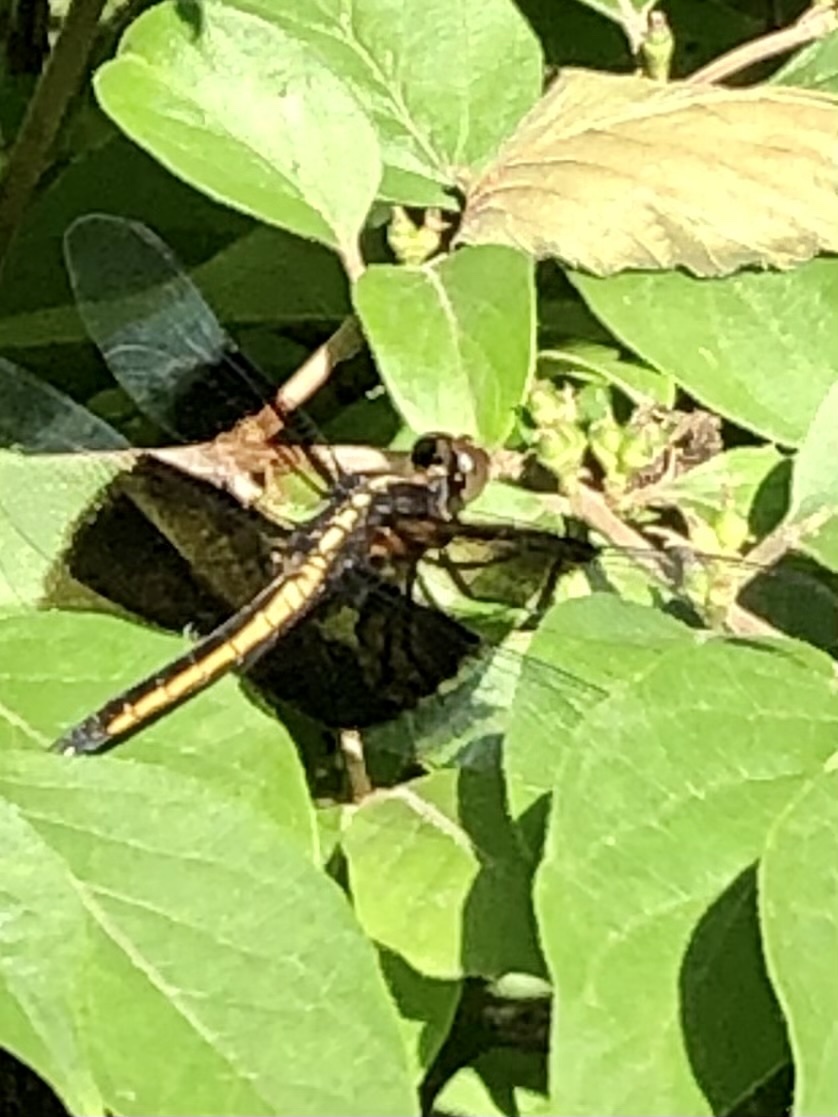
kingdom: Animalia
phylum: Arthropoda
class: Insecta
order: Odonata
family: Libellulidae
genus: Libellula
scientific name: Libellula luctuosa
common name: Widow skimmer
